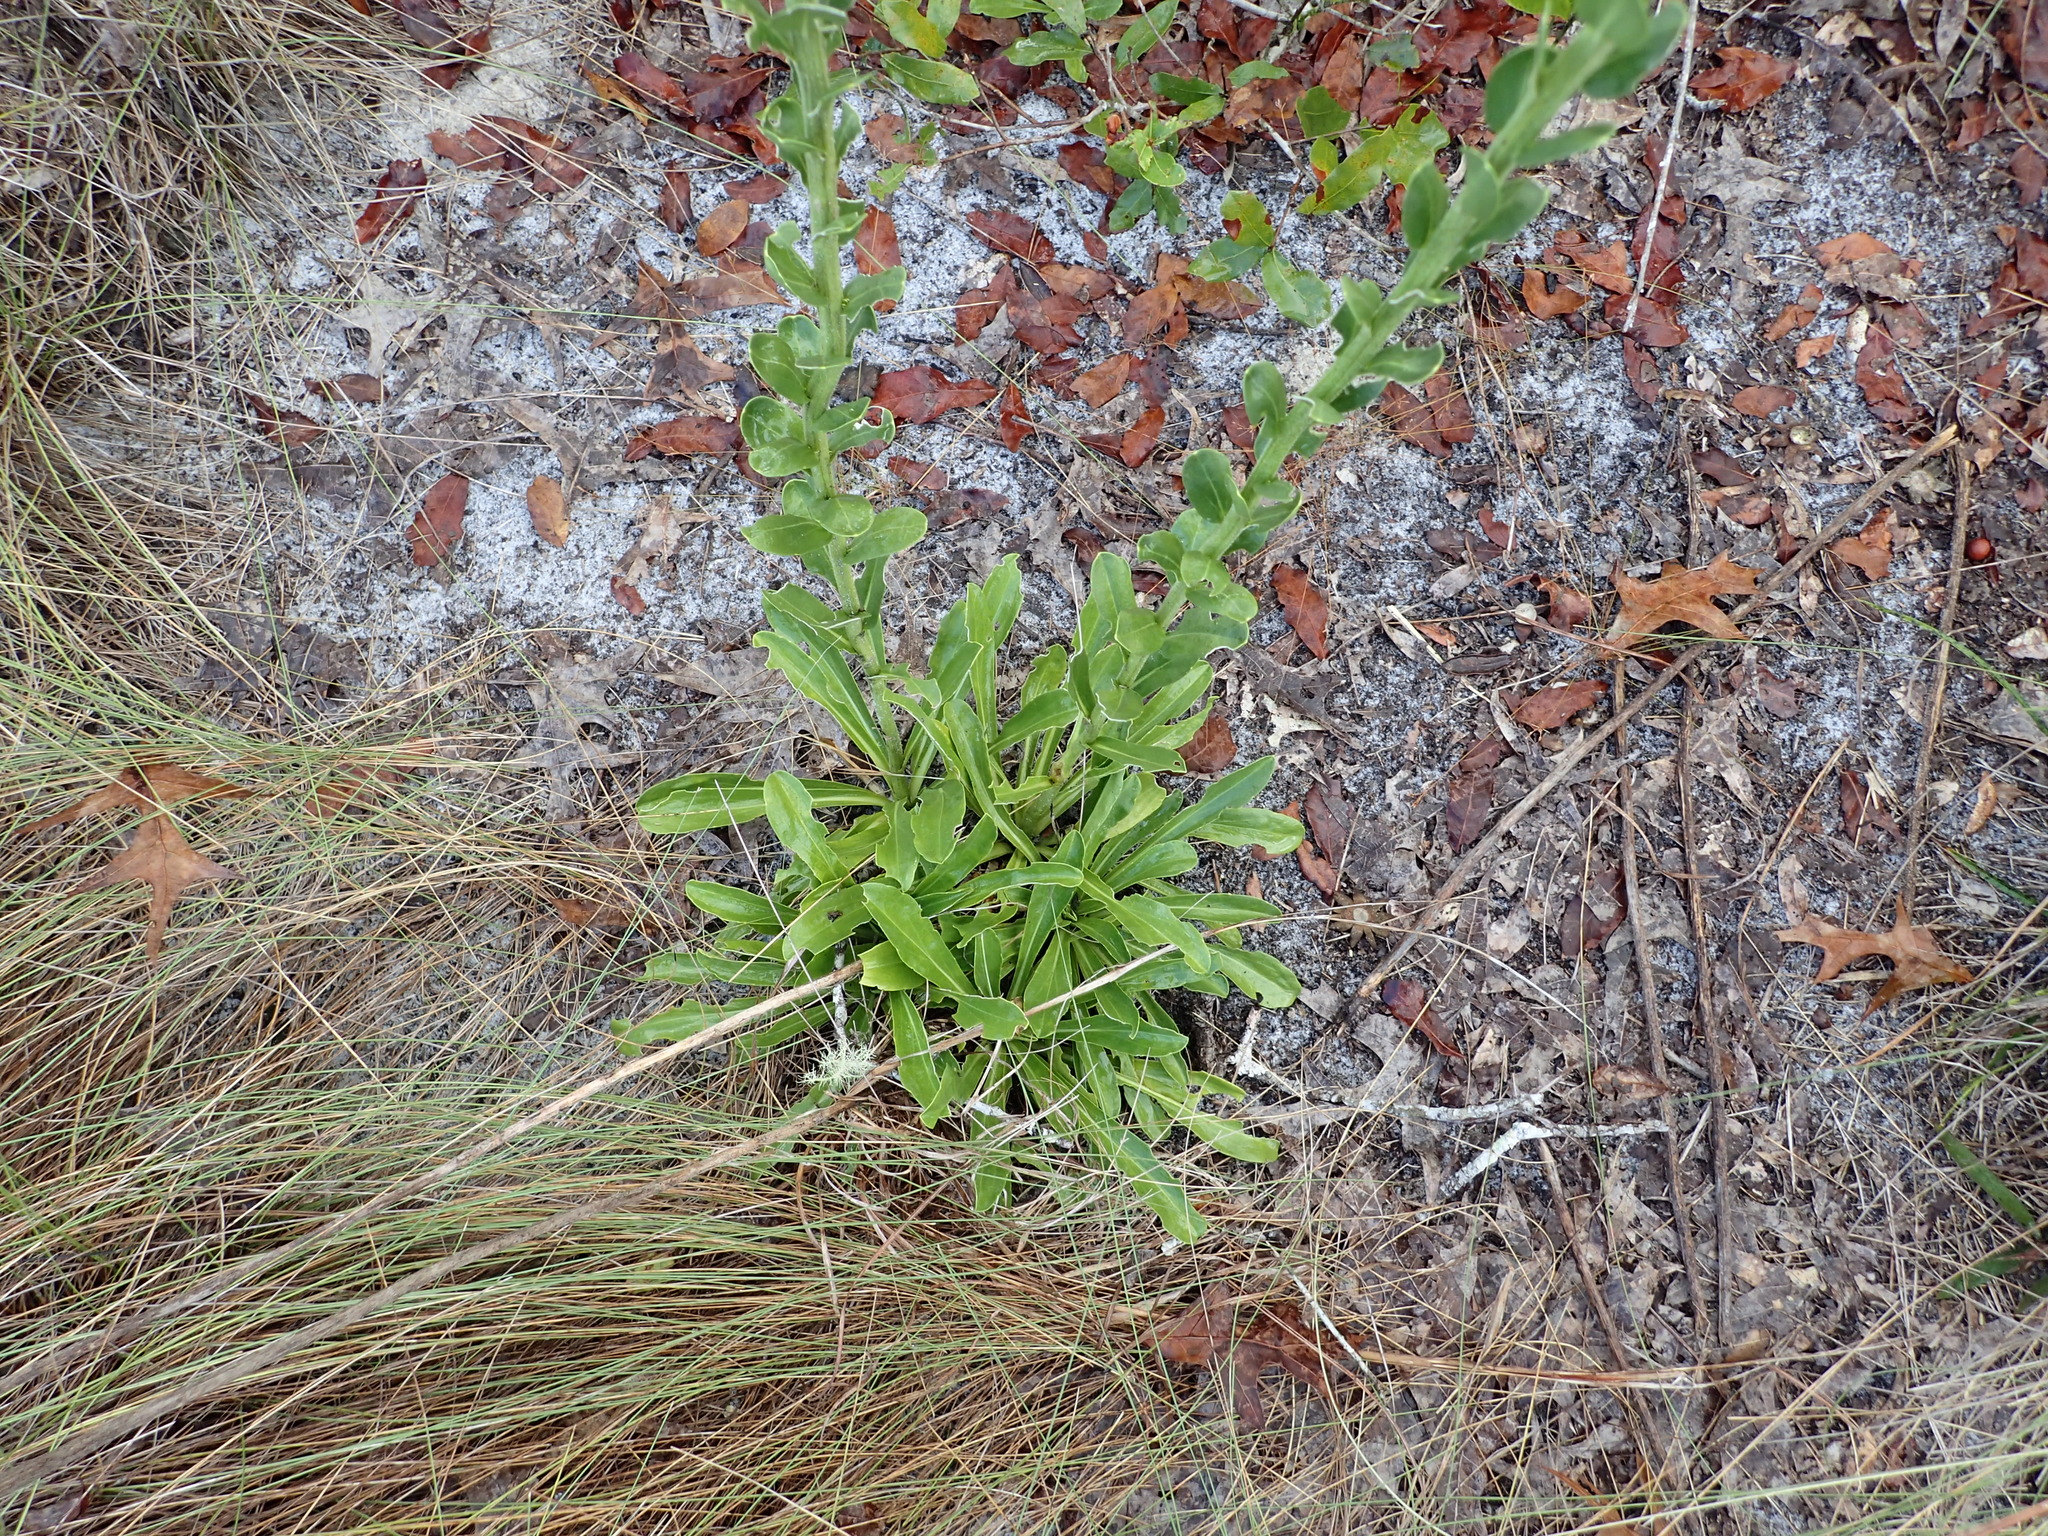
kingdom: Plantae
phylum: Tracheophyta
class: Magnoliopsida
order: Asterales
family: Asteraceae
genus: Carphephorus
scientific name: Carphephorus corymbosus
